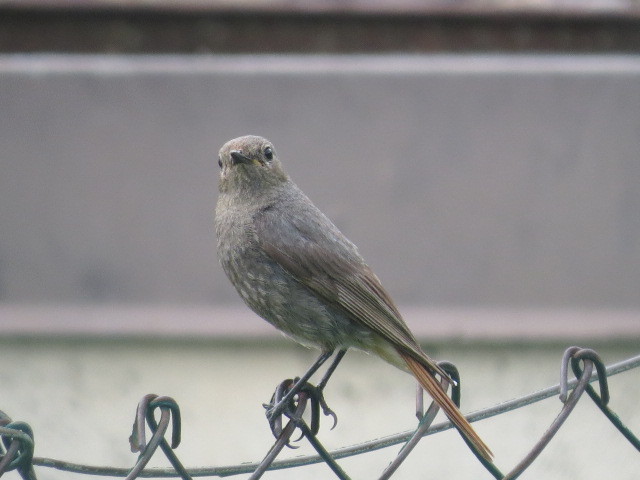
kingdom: Animalia
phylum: Chordata
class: Aves
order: Passeriformes
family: Muscicapidae
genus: Phoenicurus
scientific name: Phoenicurus ochruros
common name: Black redstart
